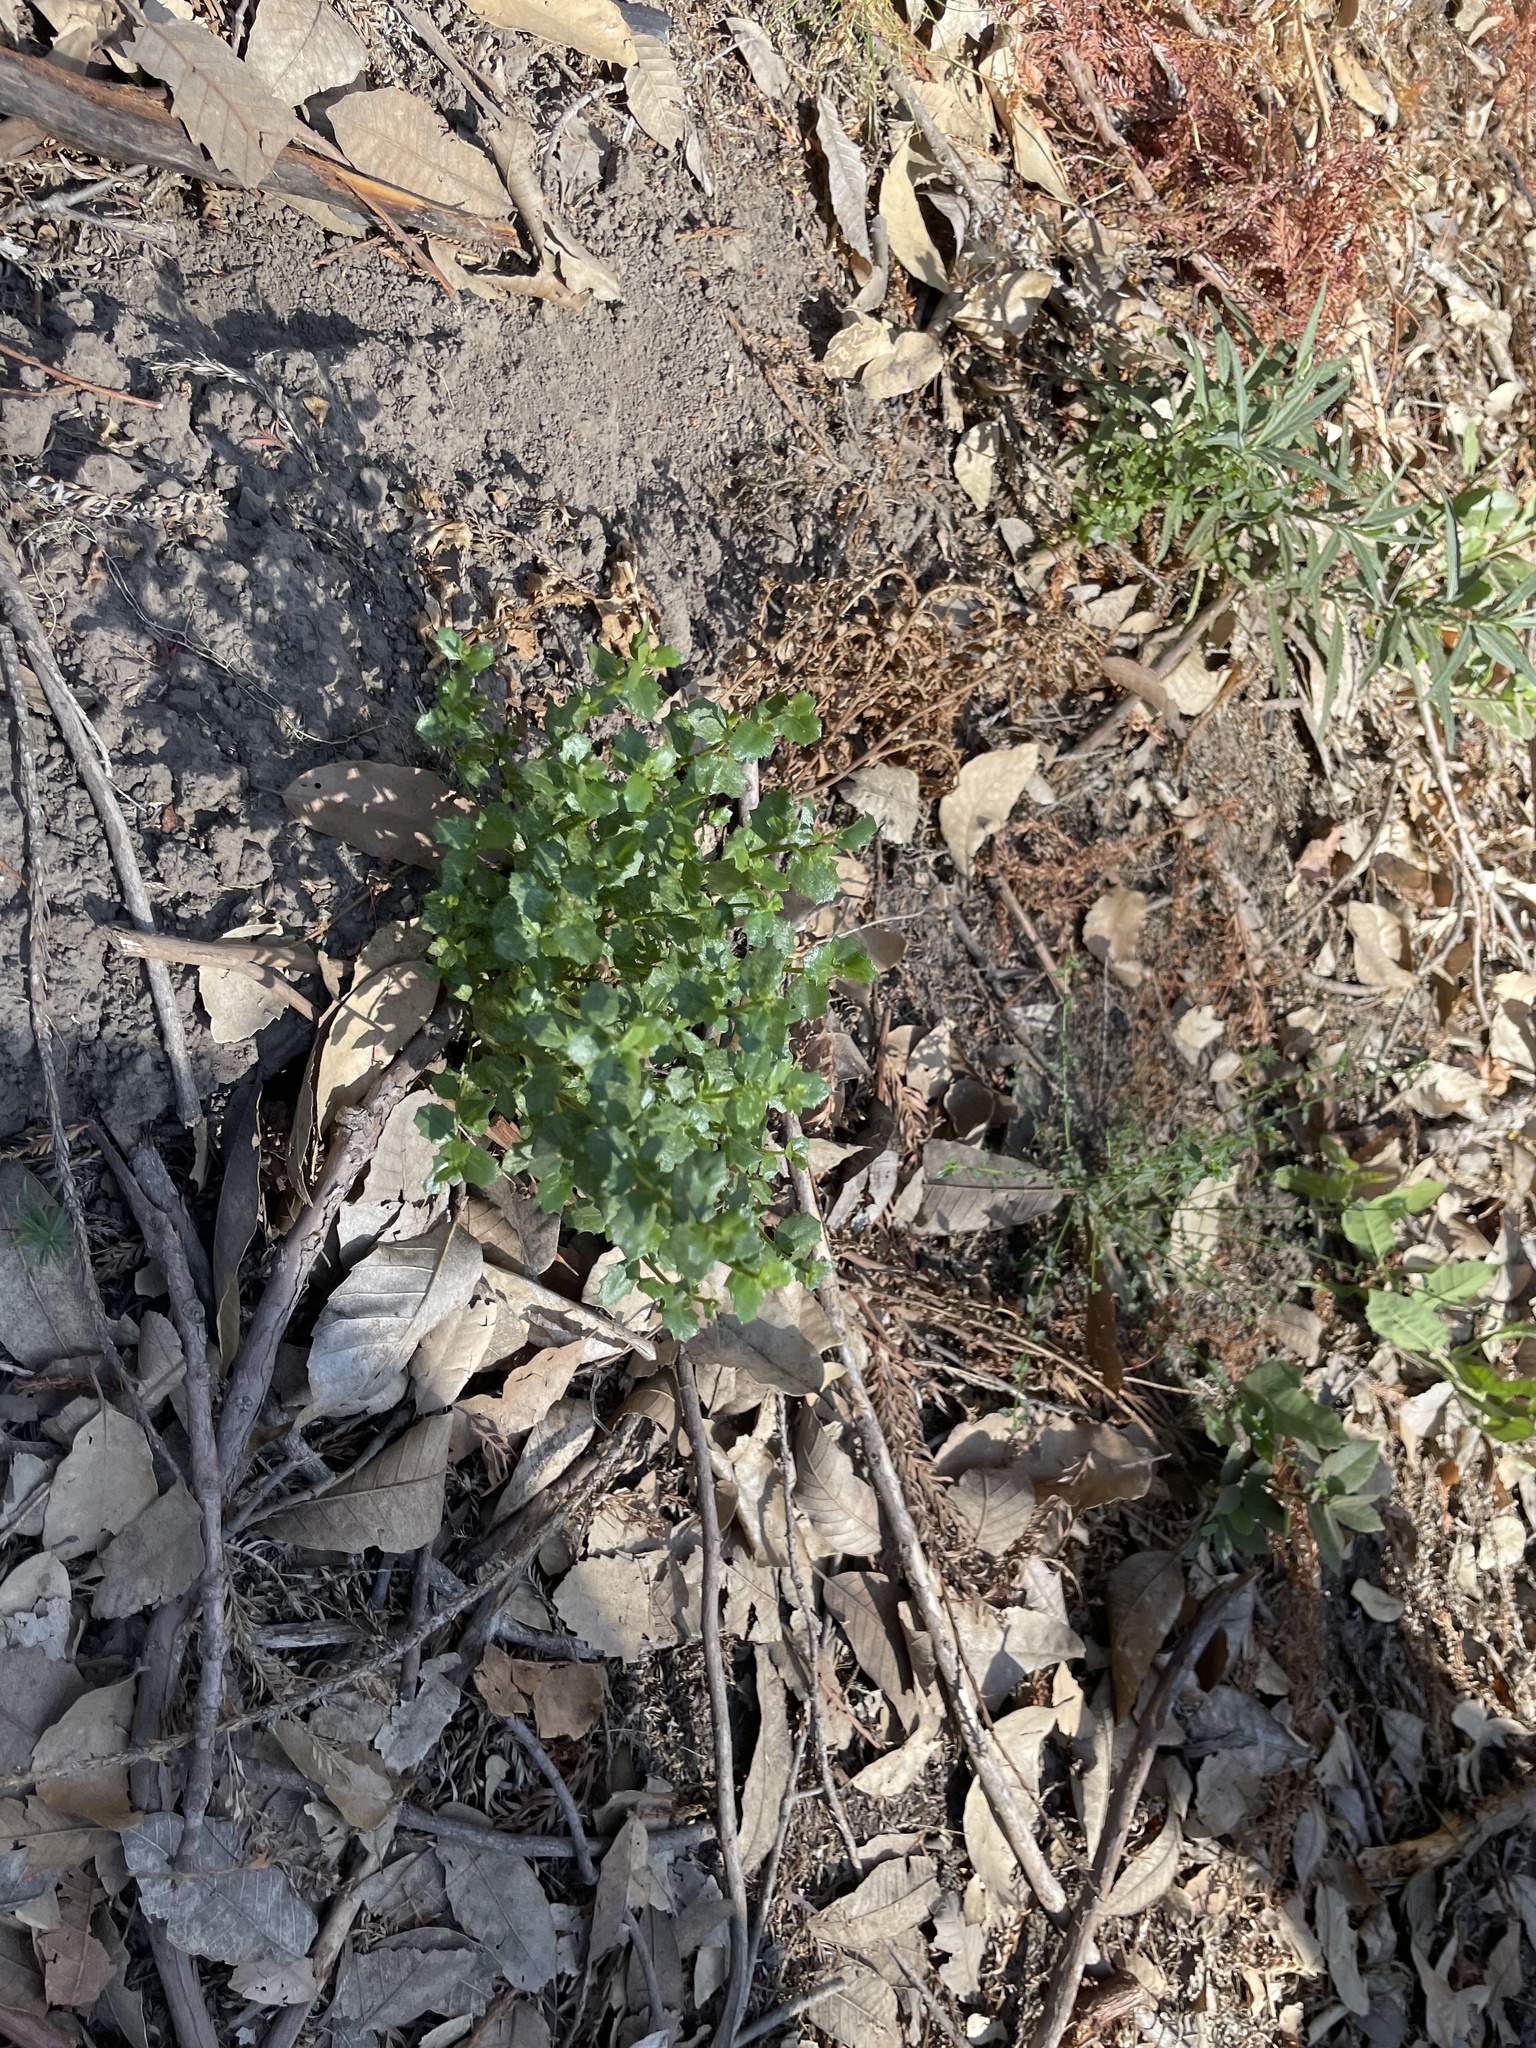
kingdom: Plantae
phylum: Tracheophyta
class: Magnoliopsida
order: Asterales
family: Asteraceae
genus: Baccharis
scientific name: Baccharis pilularis
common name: Coyotebrush
